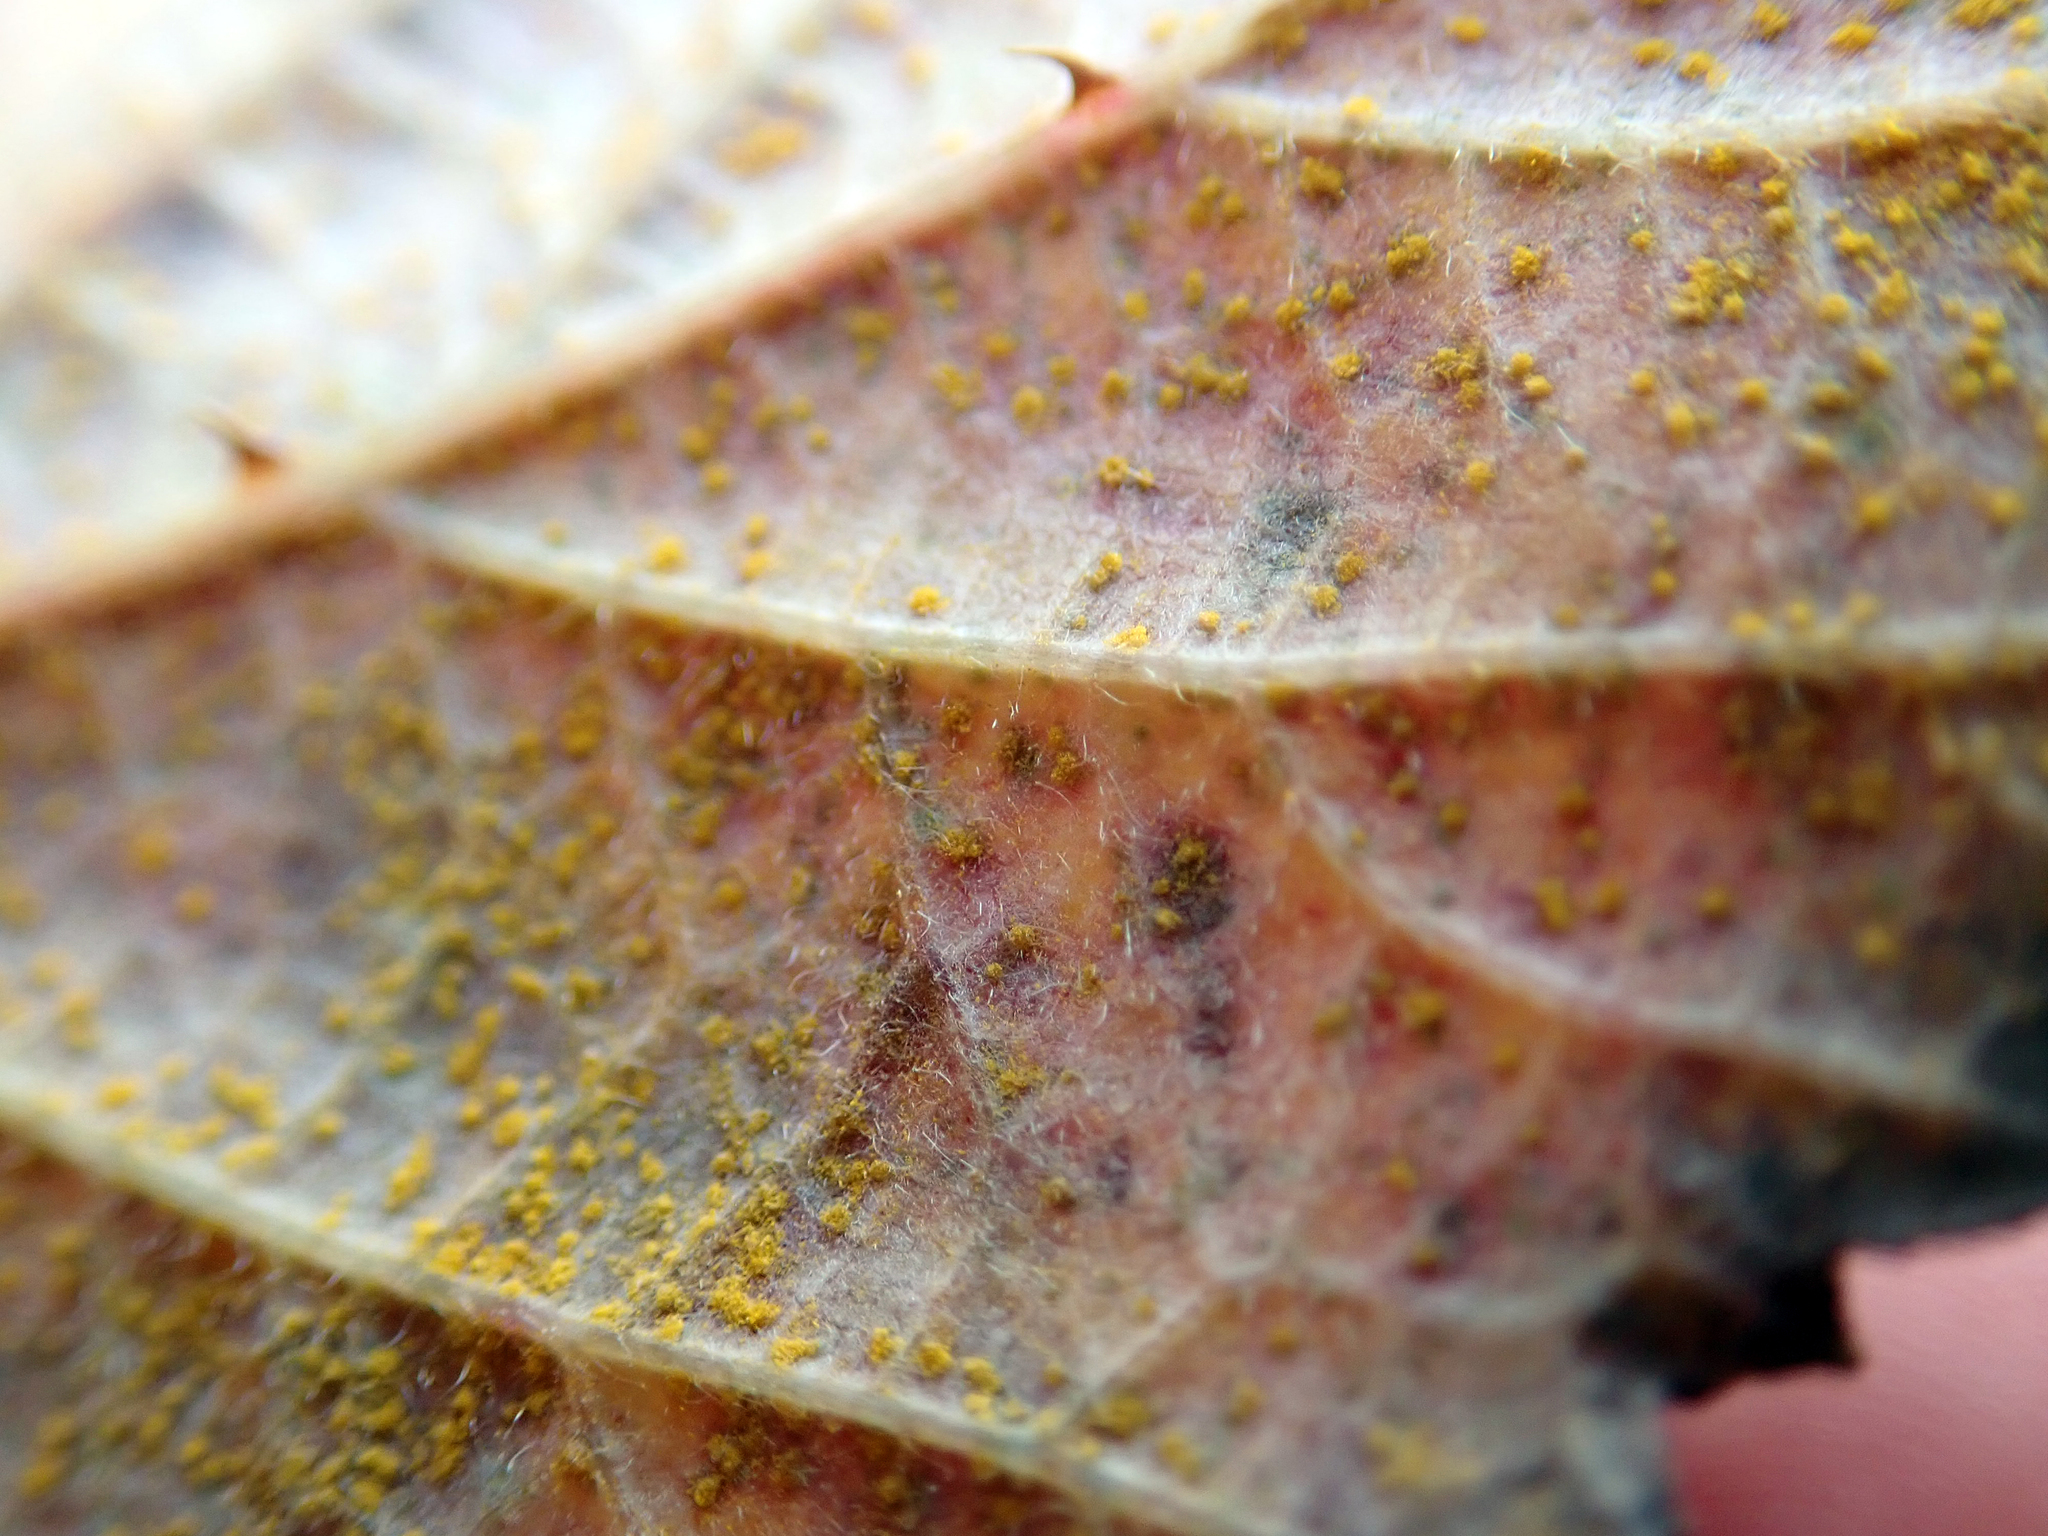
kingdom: Fungi
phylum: Basidiomycota
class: Pucciniomycetes
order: Pucciniales
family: Phragmidiaceae
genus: Phragmidium
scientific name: Phragmidium violaceum
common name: Violet bramble rust
